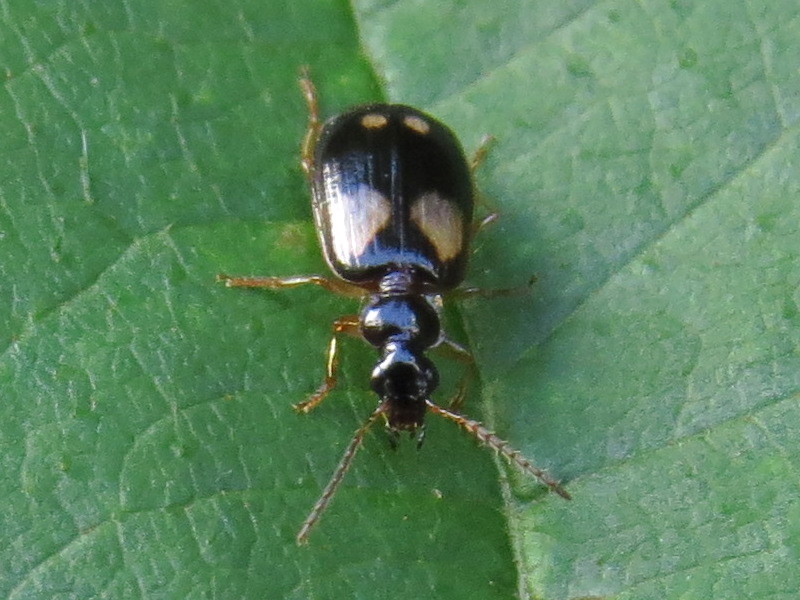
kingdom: Animalia
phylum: Arthropoda
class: Insecta
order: Coleoptera
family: Carabidae
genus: Lebia
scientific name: Lebia ornata
